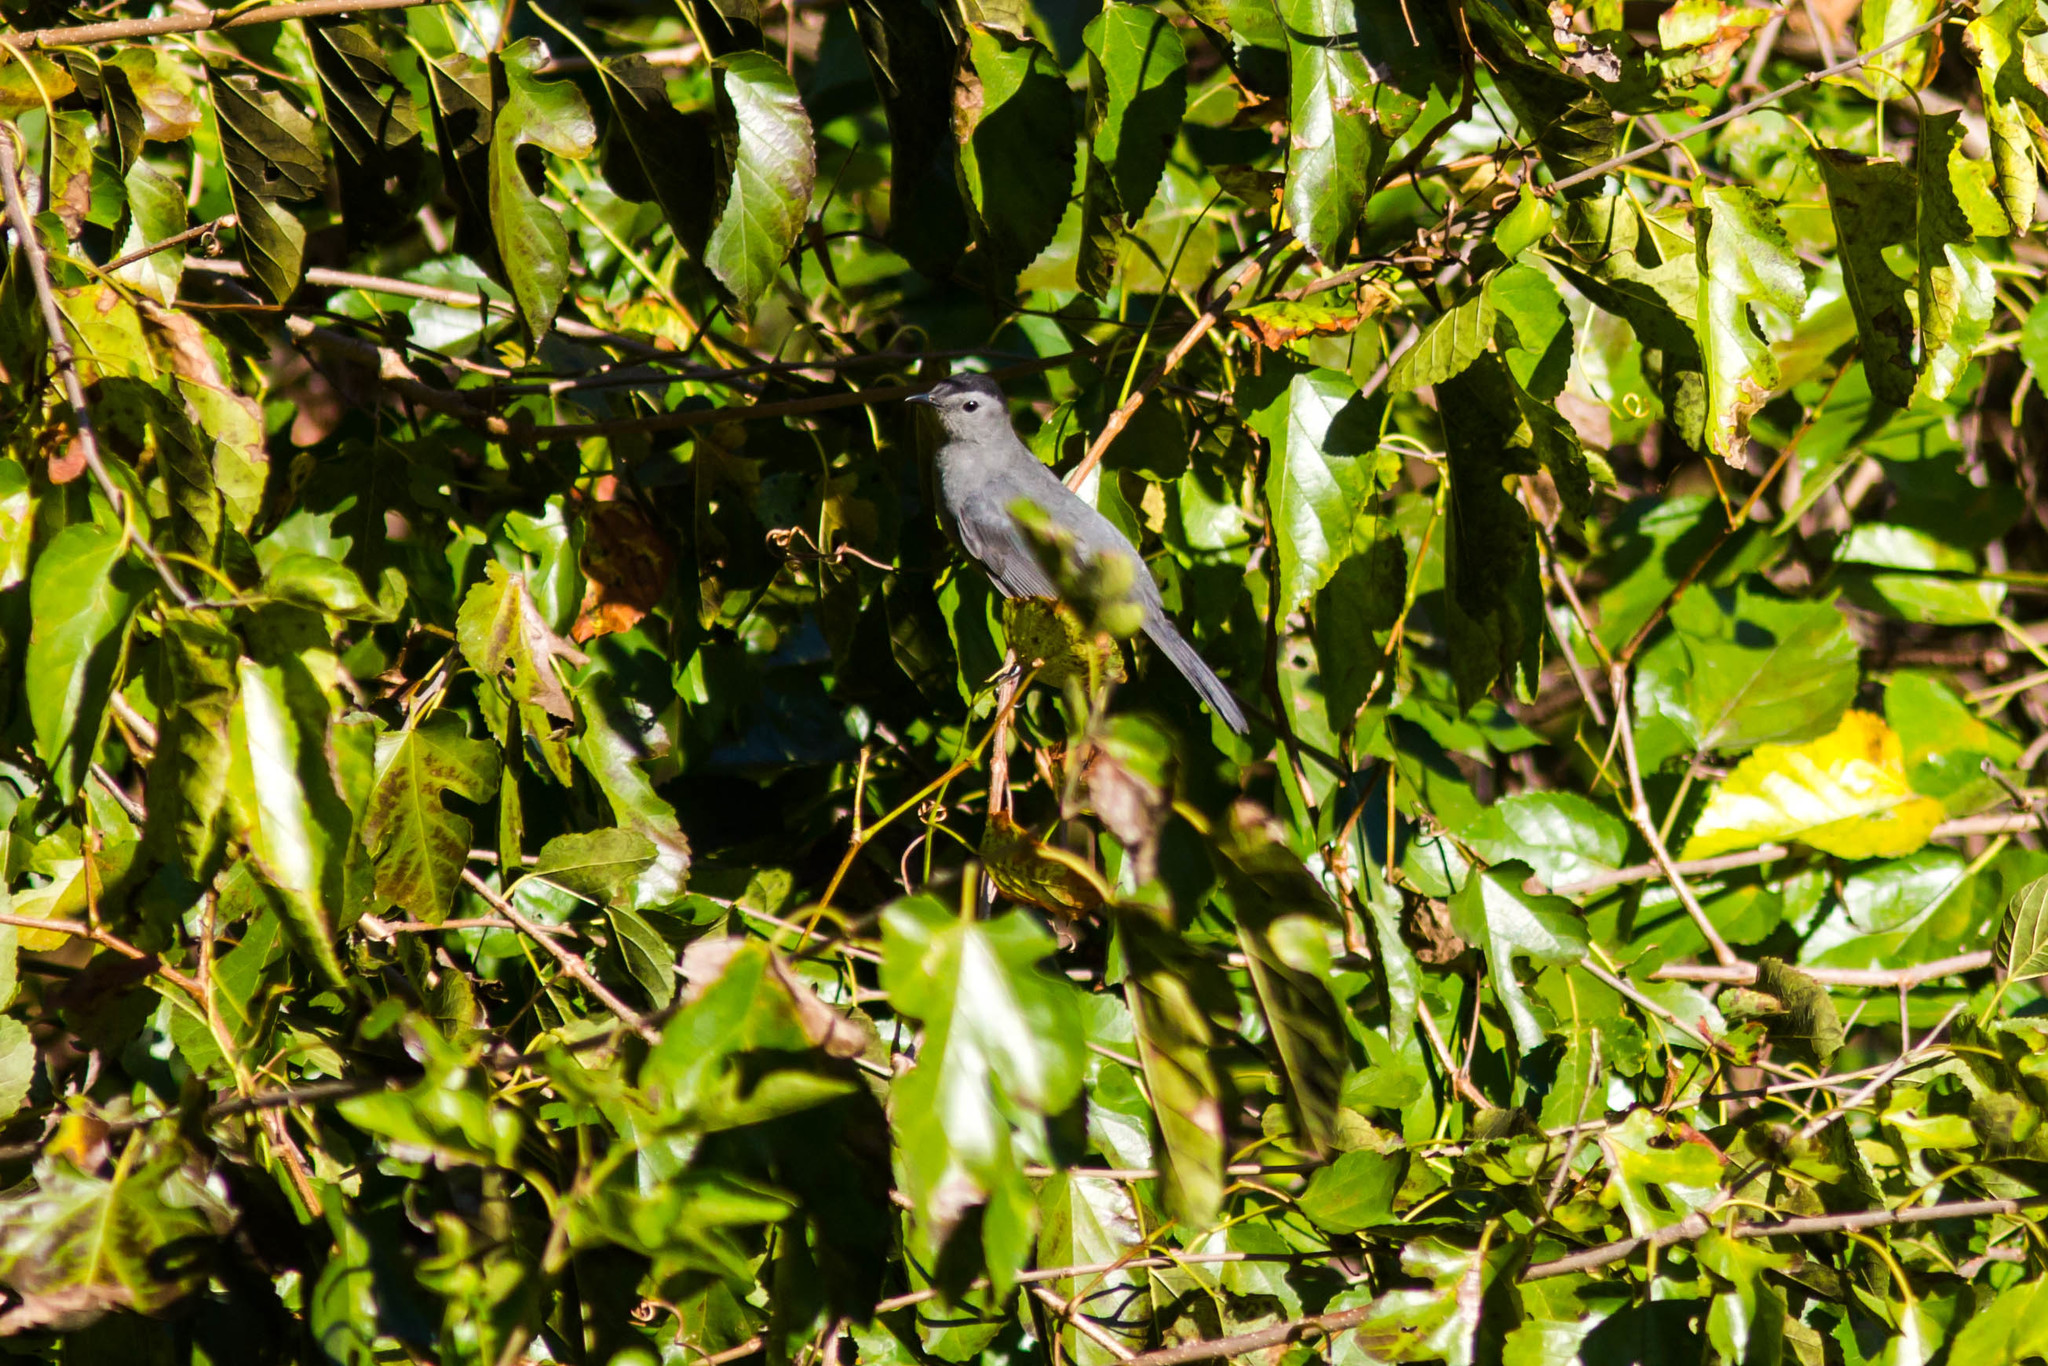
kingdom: Animalia
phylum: Chordata
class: Aves
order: Passeriformes
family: Mimidae
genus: Dumetella
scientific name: Dumetella carolinensis
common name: Gray catbird
